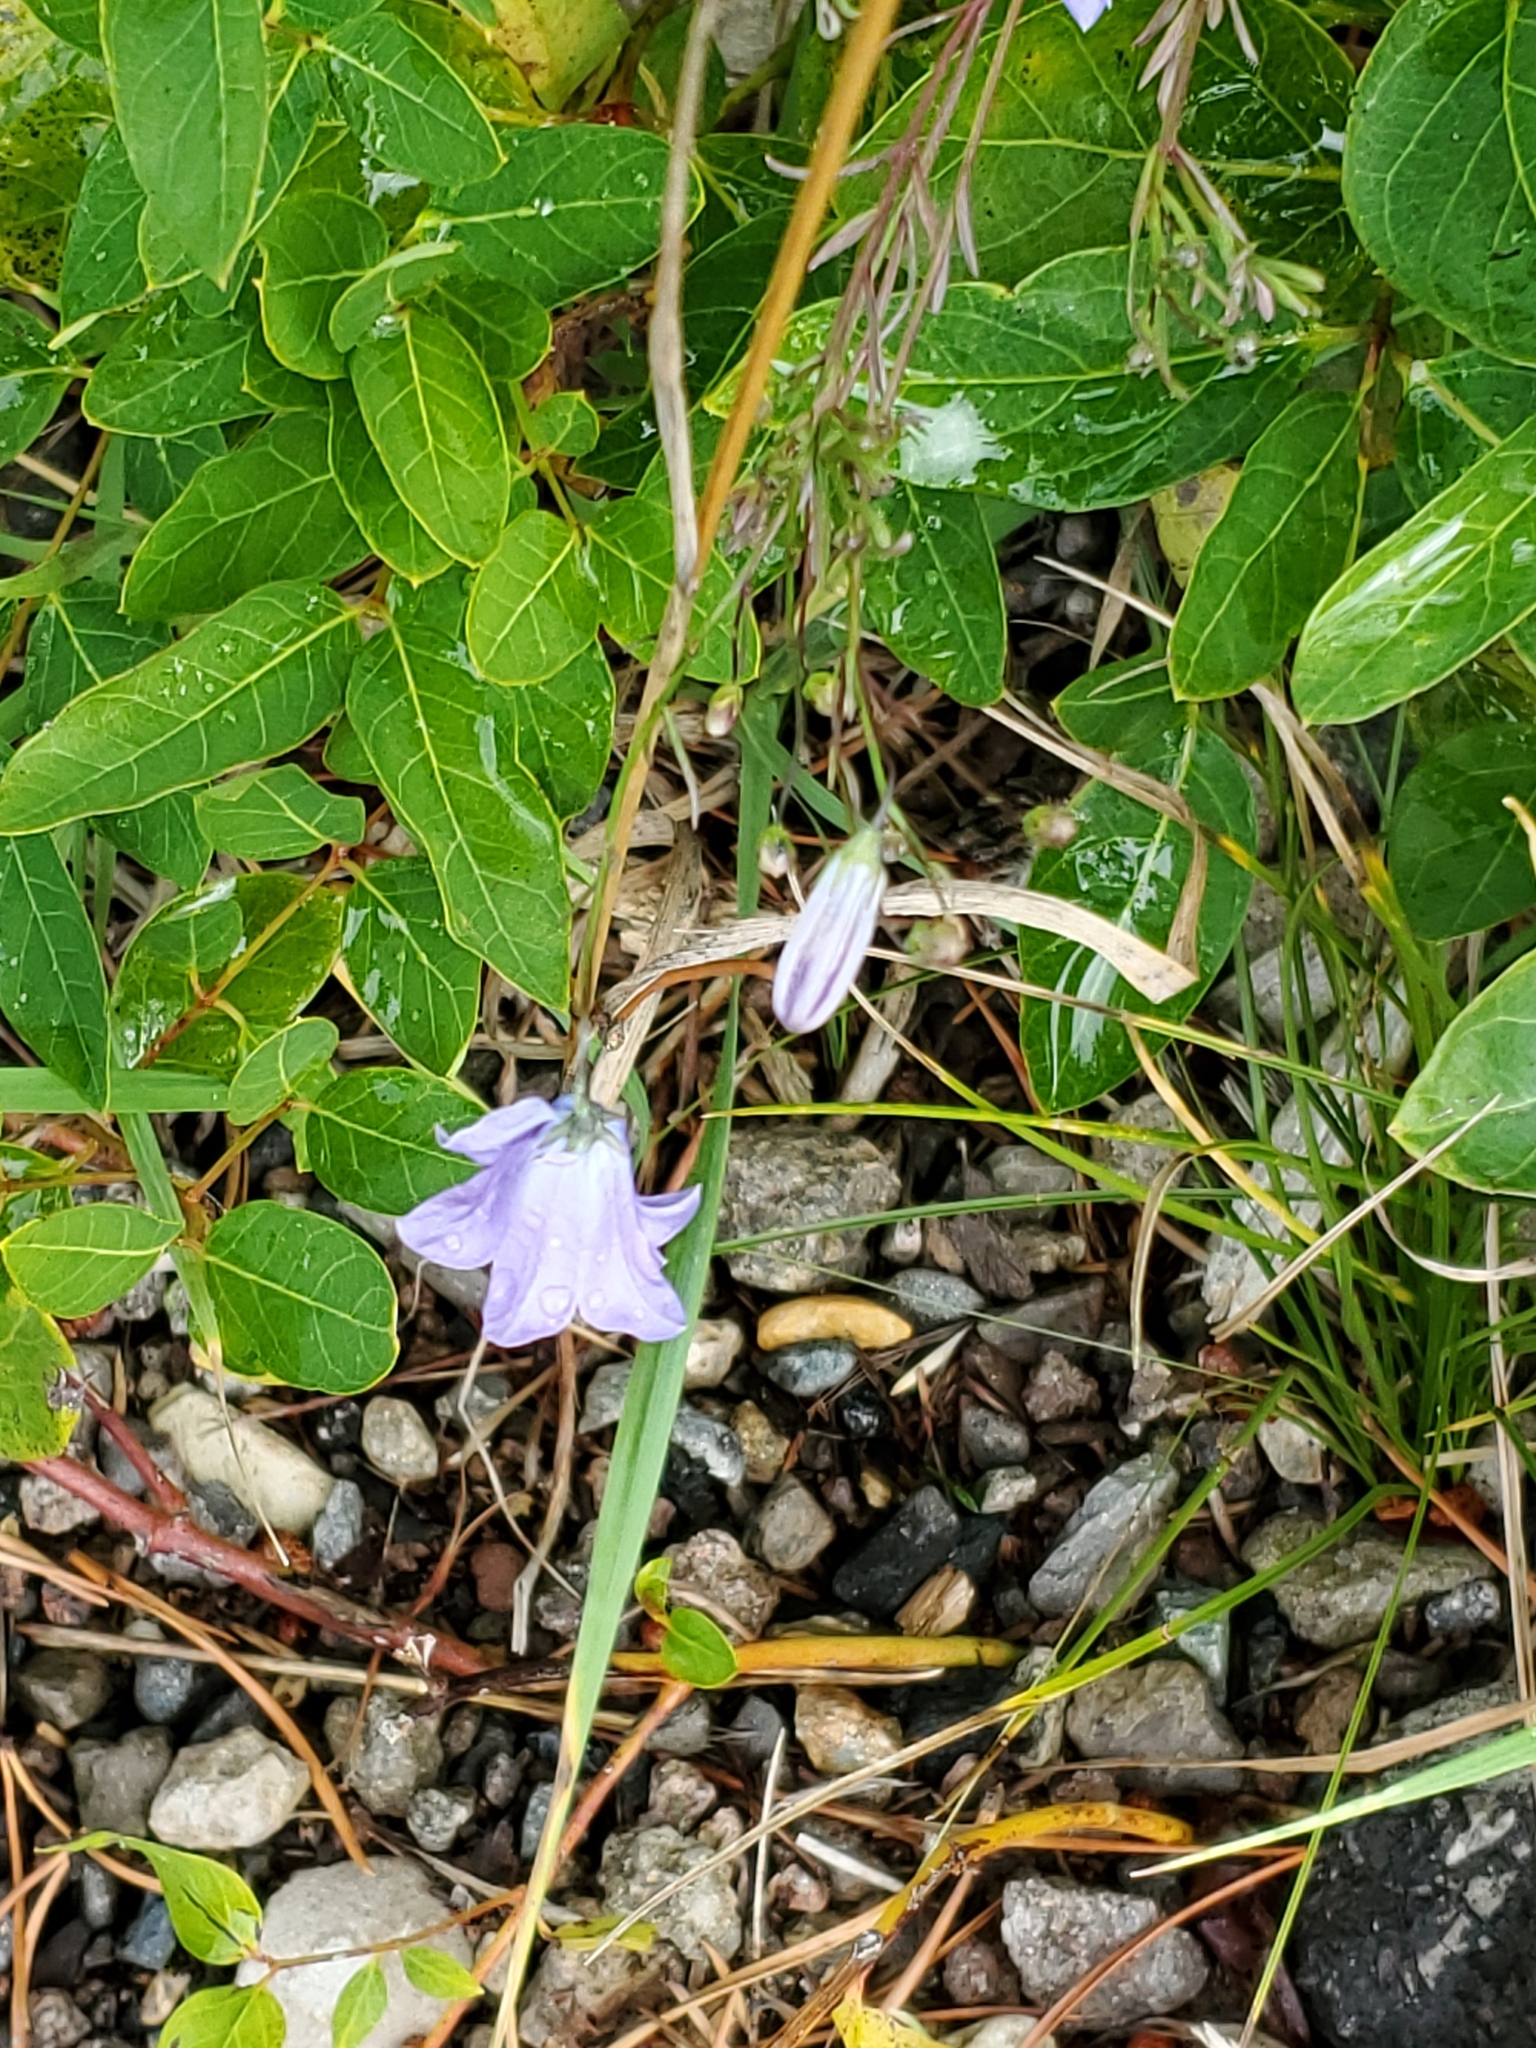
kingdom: Plantae
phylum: Tracheophyta
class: Magnoliopsida
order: Asterales
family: Campanulaceae
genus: Campanula
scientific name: Campanula petiolata
